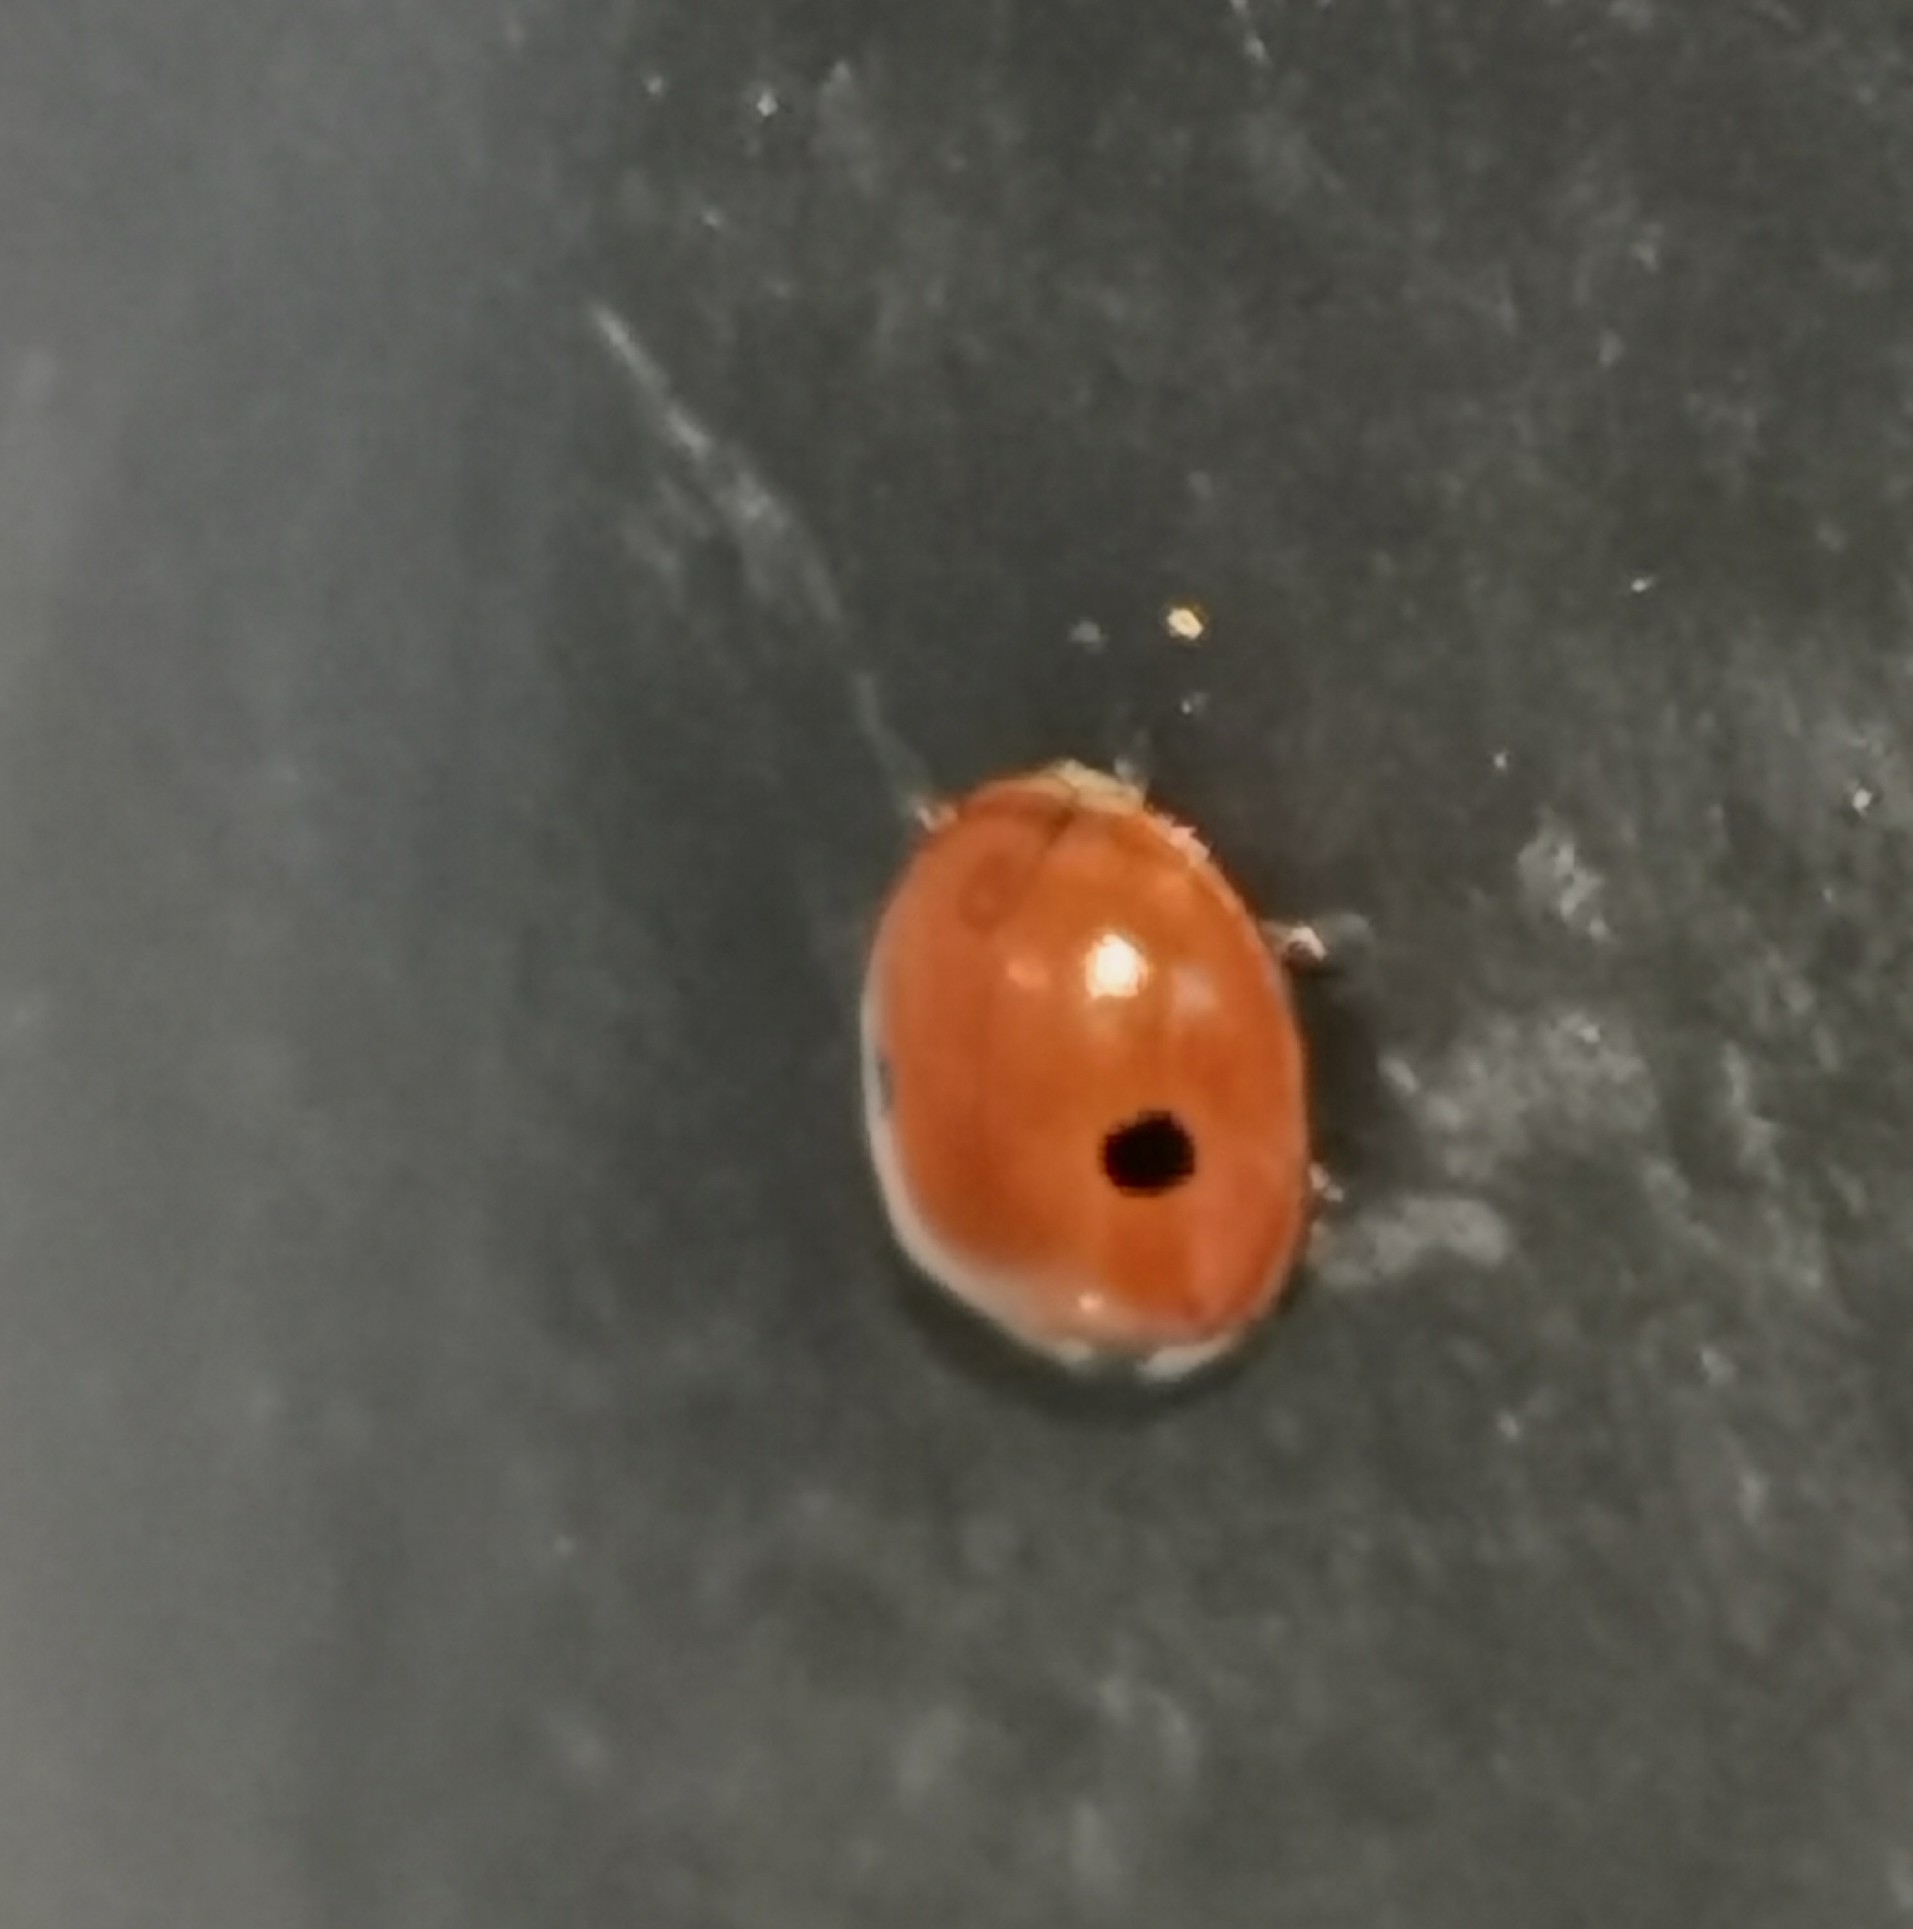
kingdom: Animalia
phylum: Arthropoda
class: Insecta
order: Coleoptera
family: Coccinellidae
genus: Adalia
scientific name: Adalia bipunctata
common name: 2-spot ladybird
